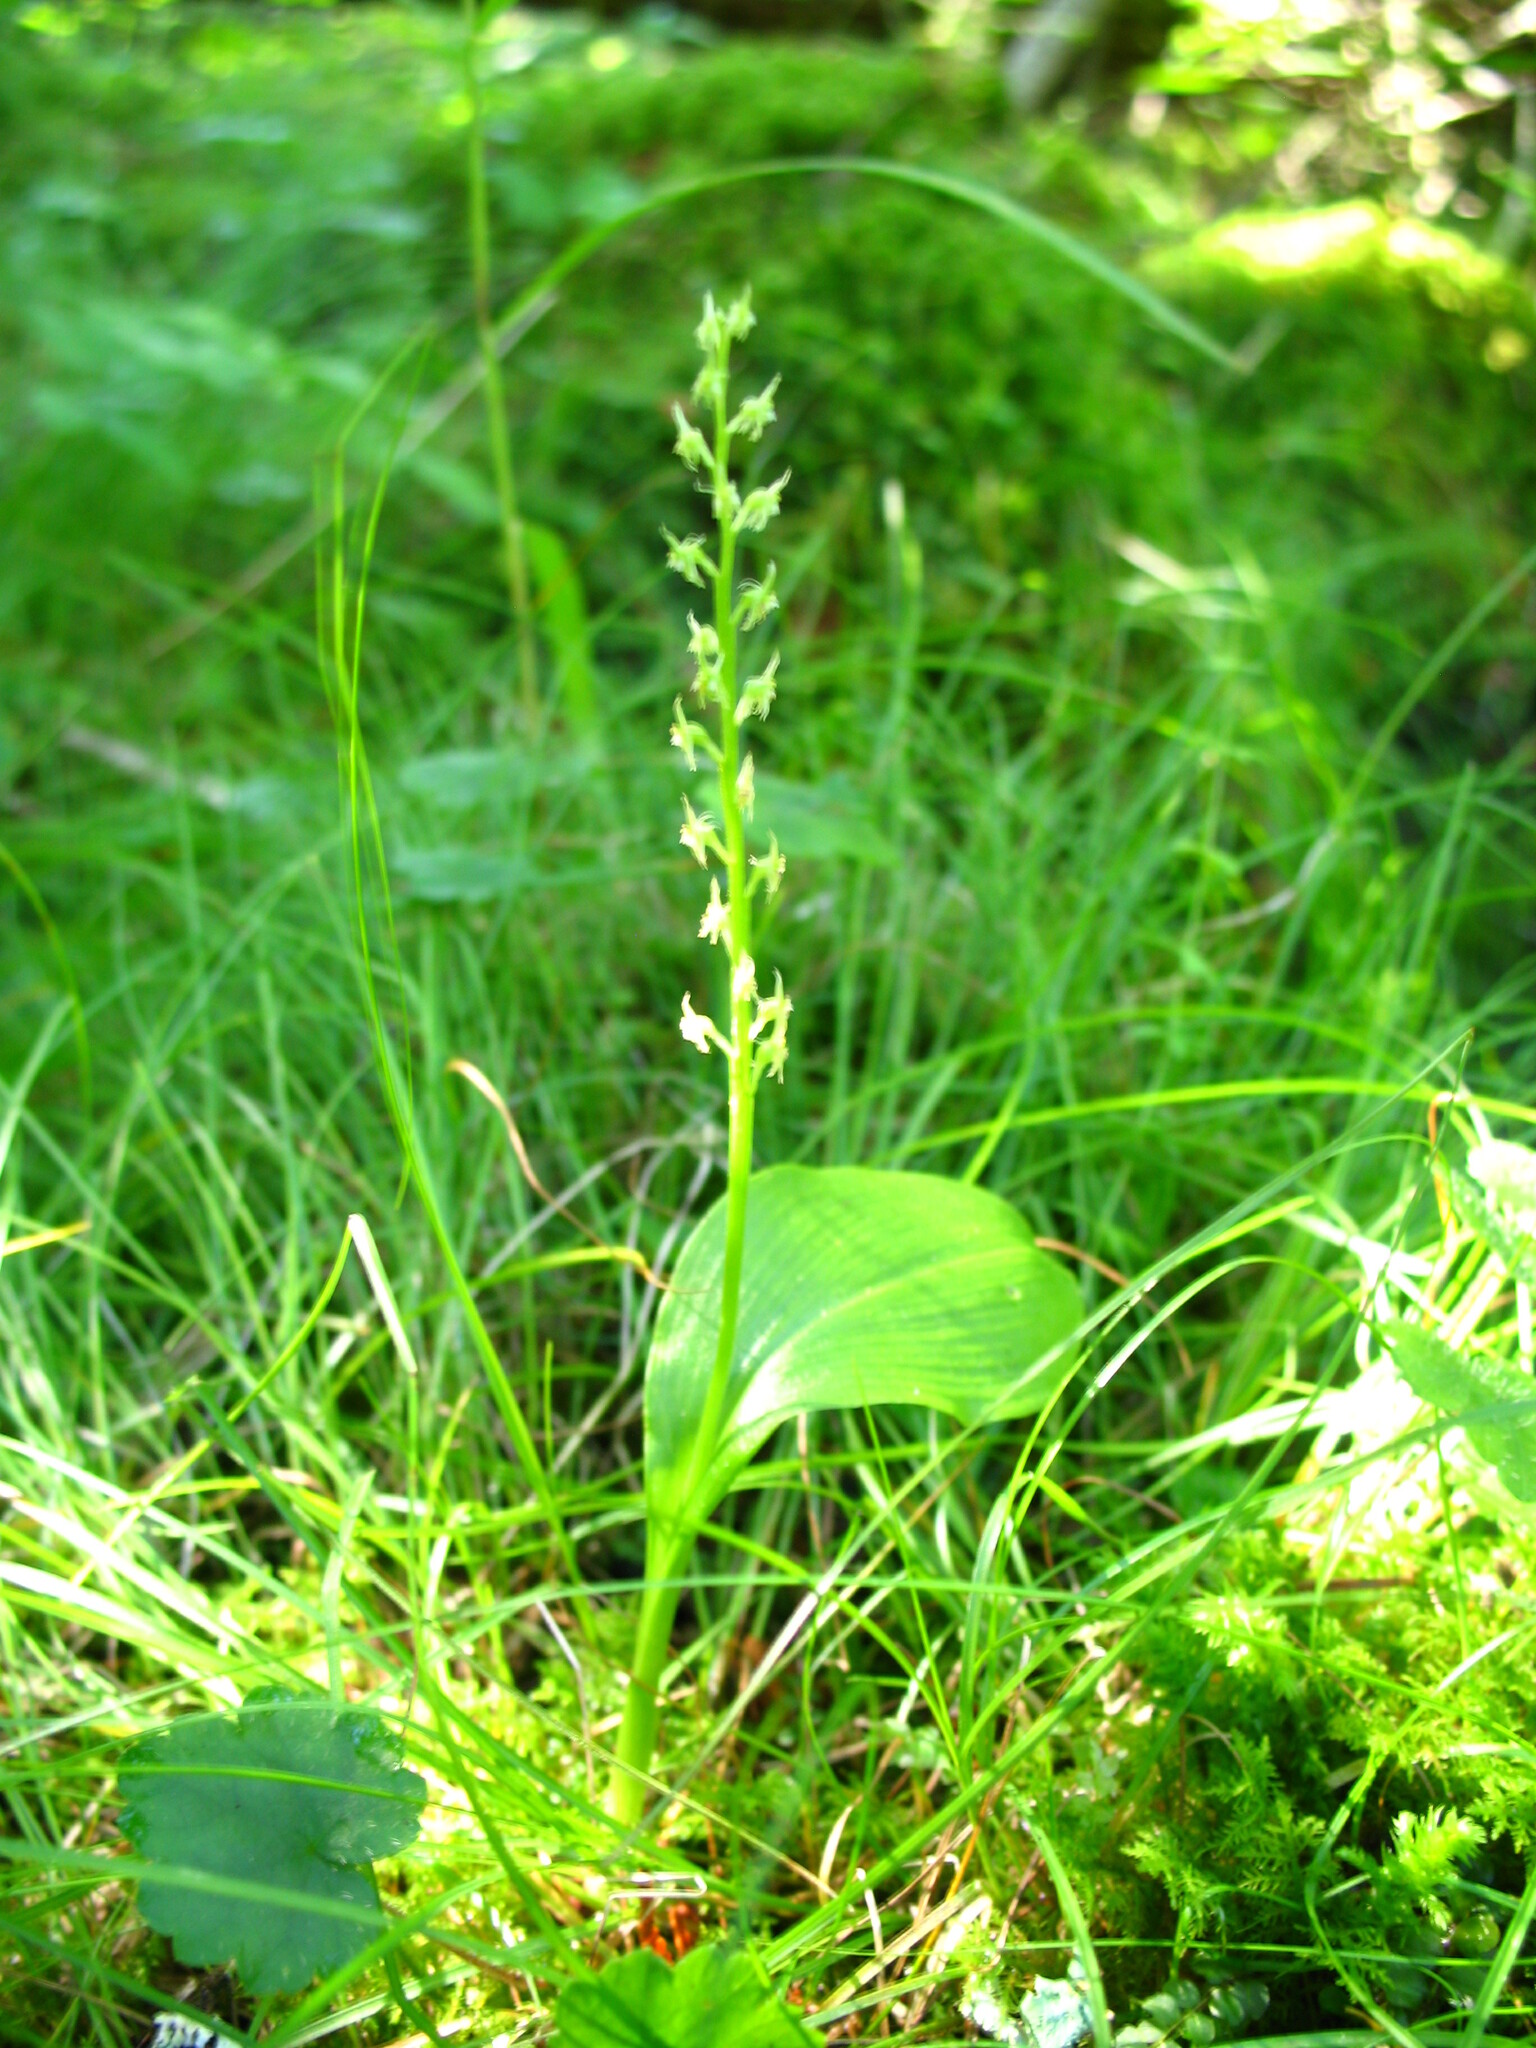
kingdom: Plantae
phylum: Tracheophyta
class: Liliopsida
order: Asparagales
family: Orchidaceae
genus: Malaxis
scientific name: Malaxis monophyllos
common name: White adder's-mouth
